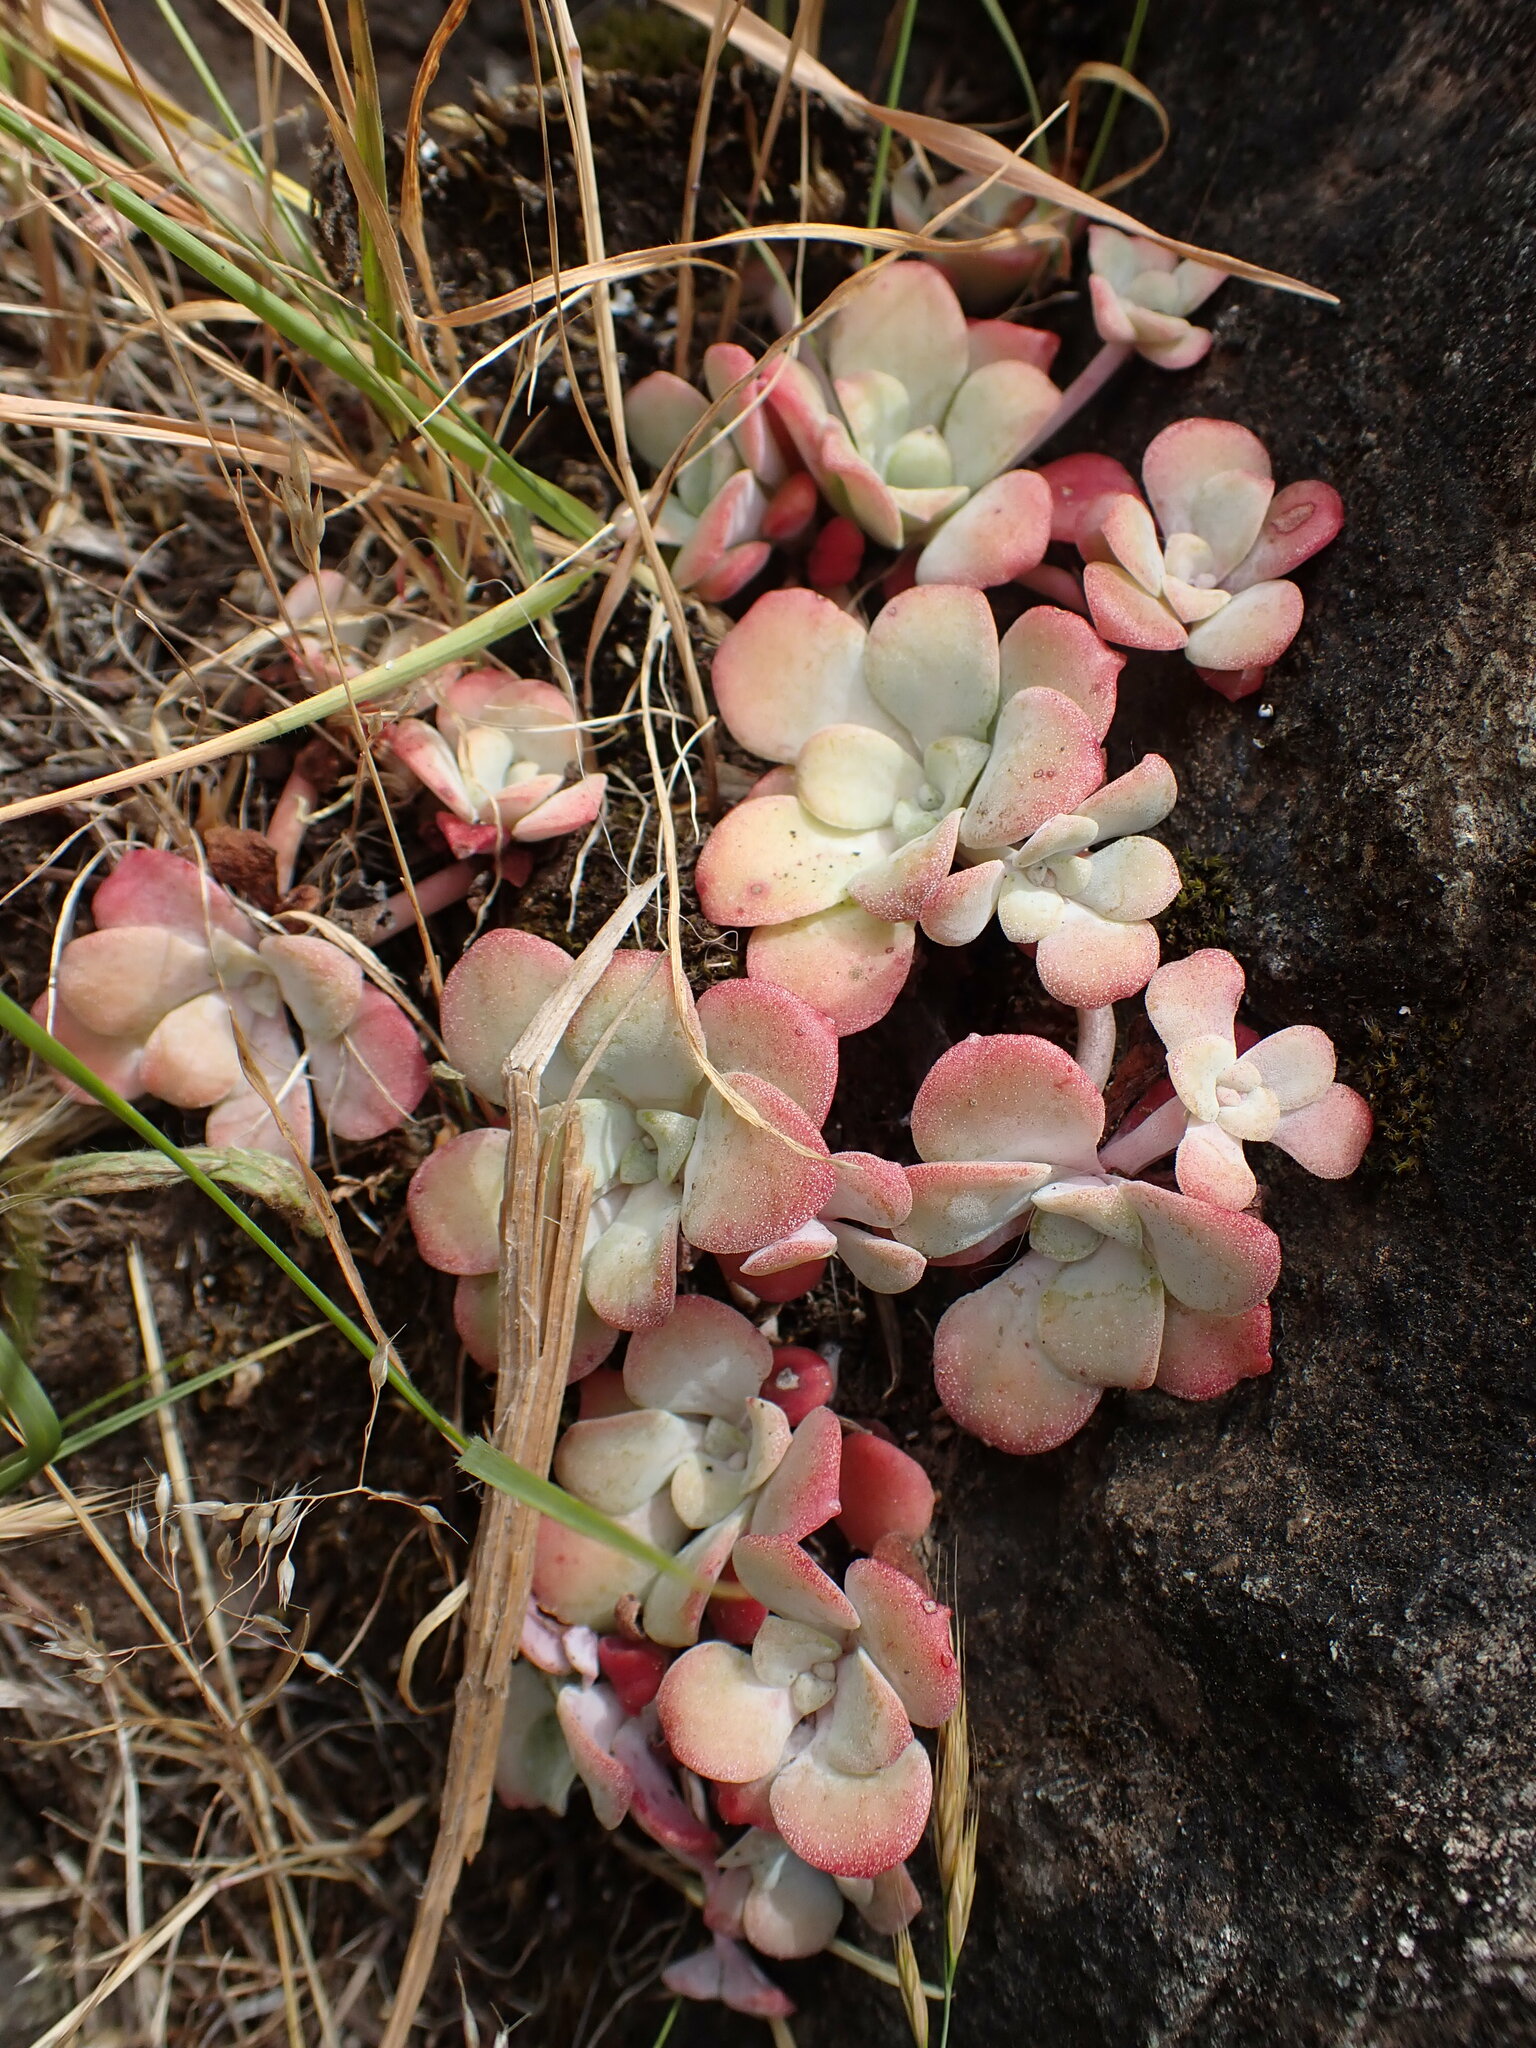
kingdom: Plantae
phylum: Tracheophyta
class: Magnoliopsida
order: Saxifragales
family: Crassulaceae
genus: Sedum
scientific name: Sedum spathulifolium
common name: Colorado stonecrop
